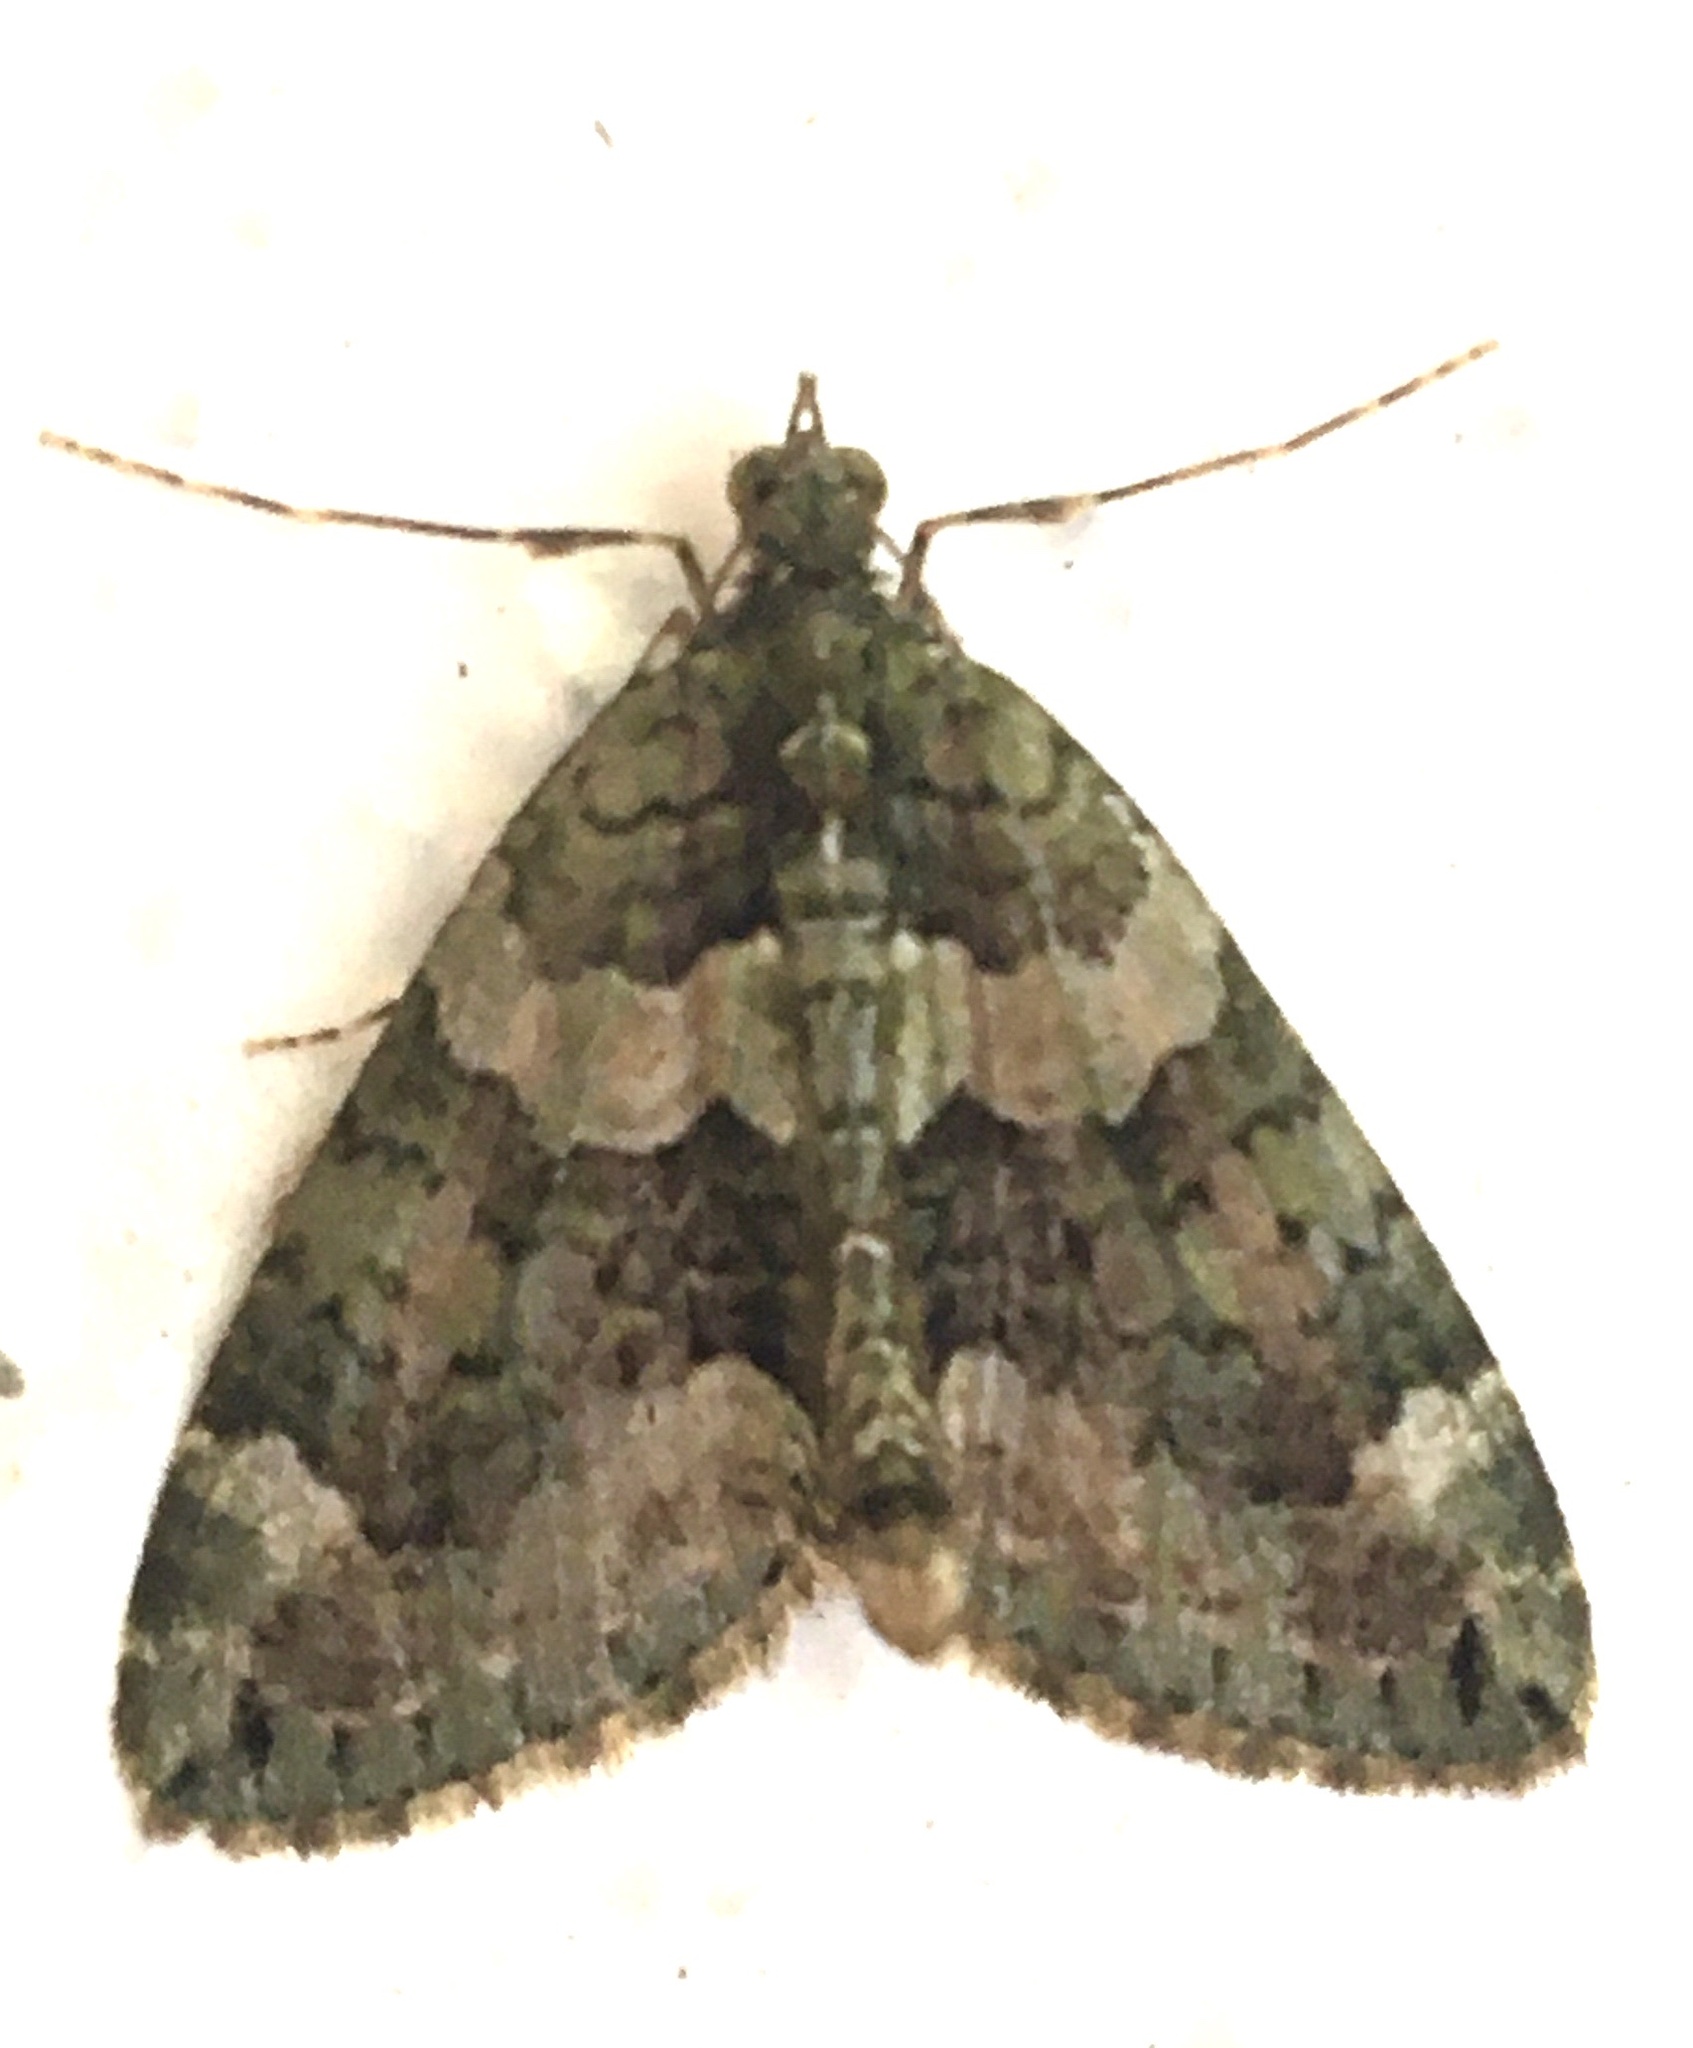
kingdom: Animalia
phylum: Arthropoda
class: Insecta
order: Lepidoptera
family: Geometridae
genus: Chloroclysta
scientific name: Chloroclysta siterata
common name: Red-green carpet
